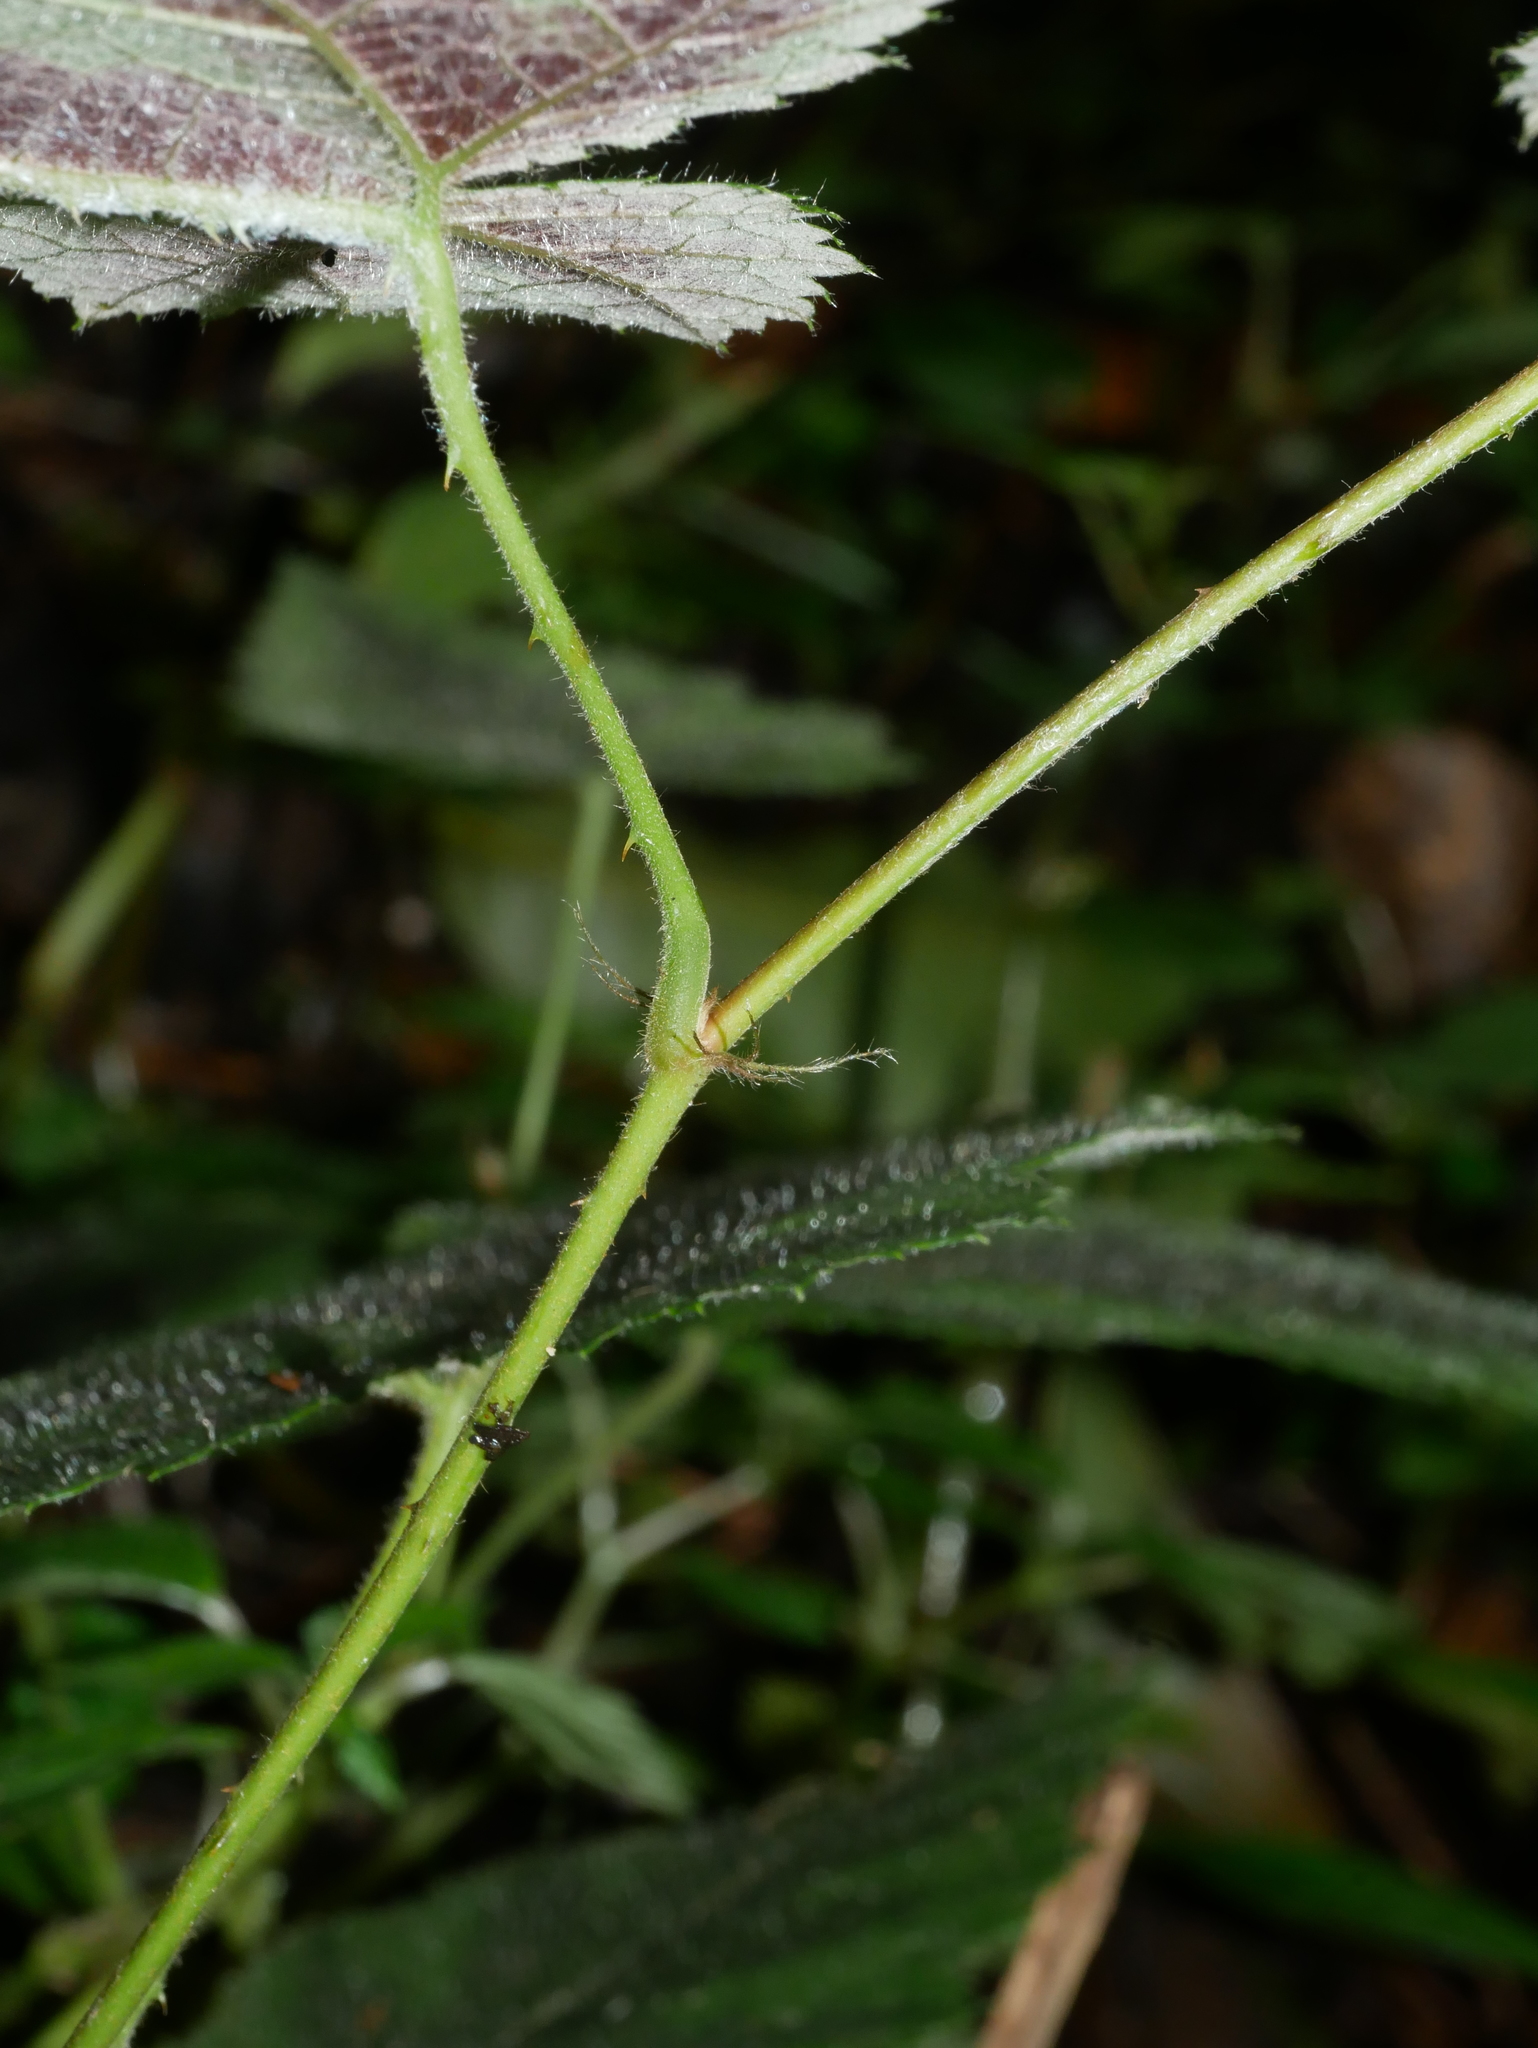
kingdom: Plantae
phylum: Tracheophyta
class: Magnoliopsida
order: Rosales
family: Rosaceae
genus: Rubus
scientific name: Rubus
